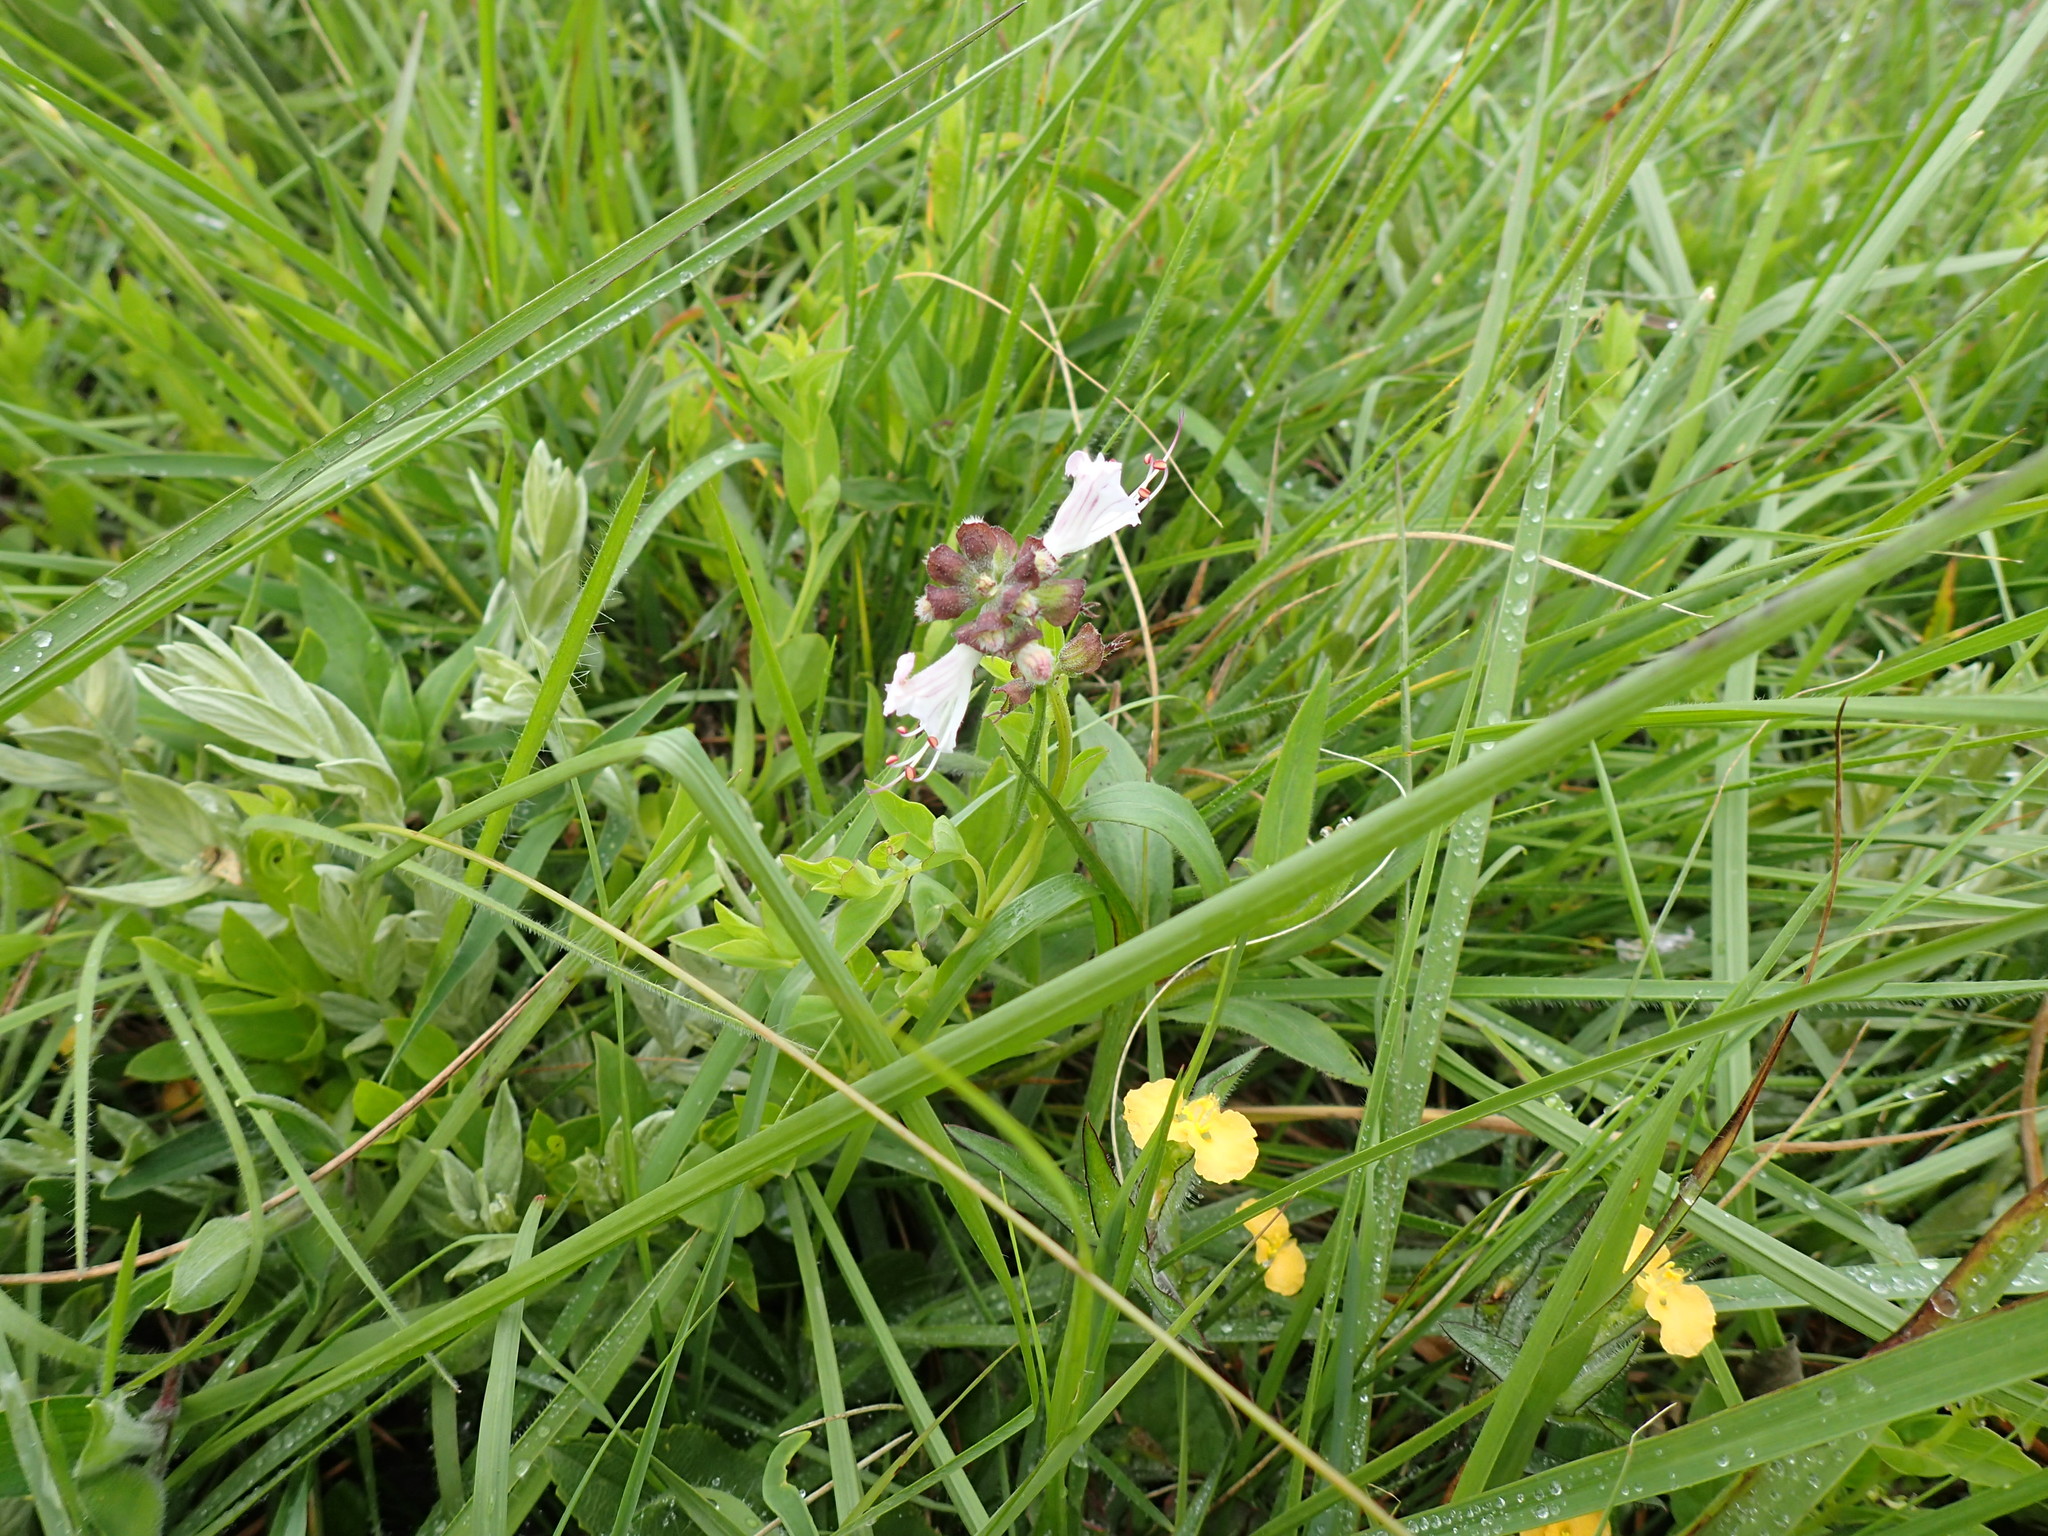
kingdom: Plantae
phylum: Tracheophyta
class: Magnoliopsida
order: Lamiales
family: Lamiaceae
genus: Ocimum
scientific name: Ocimum obovatum
